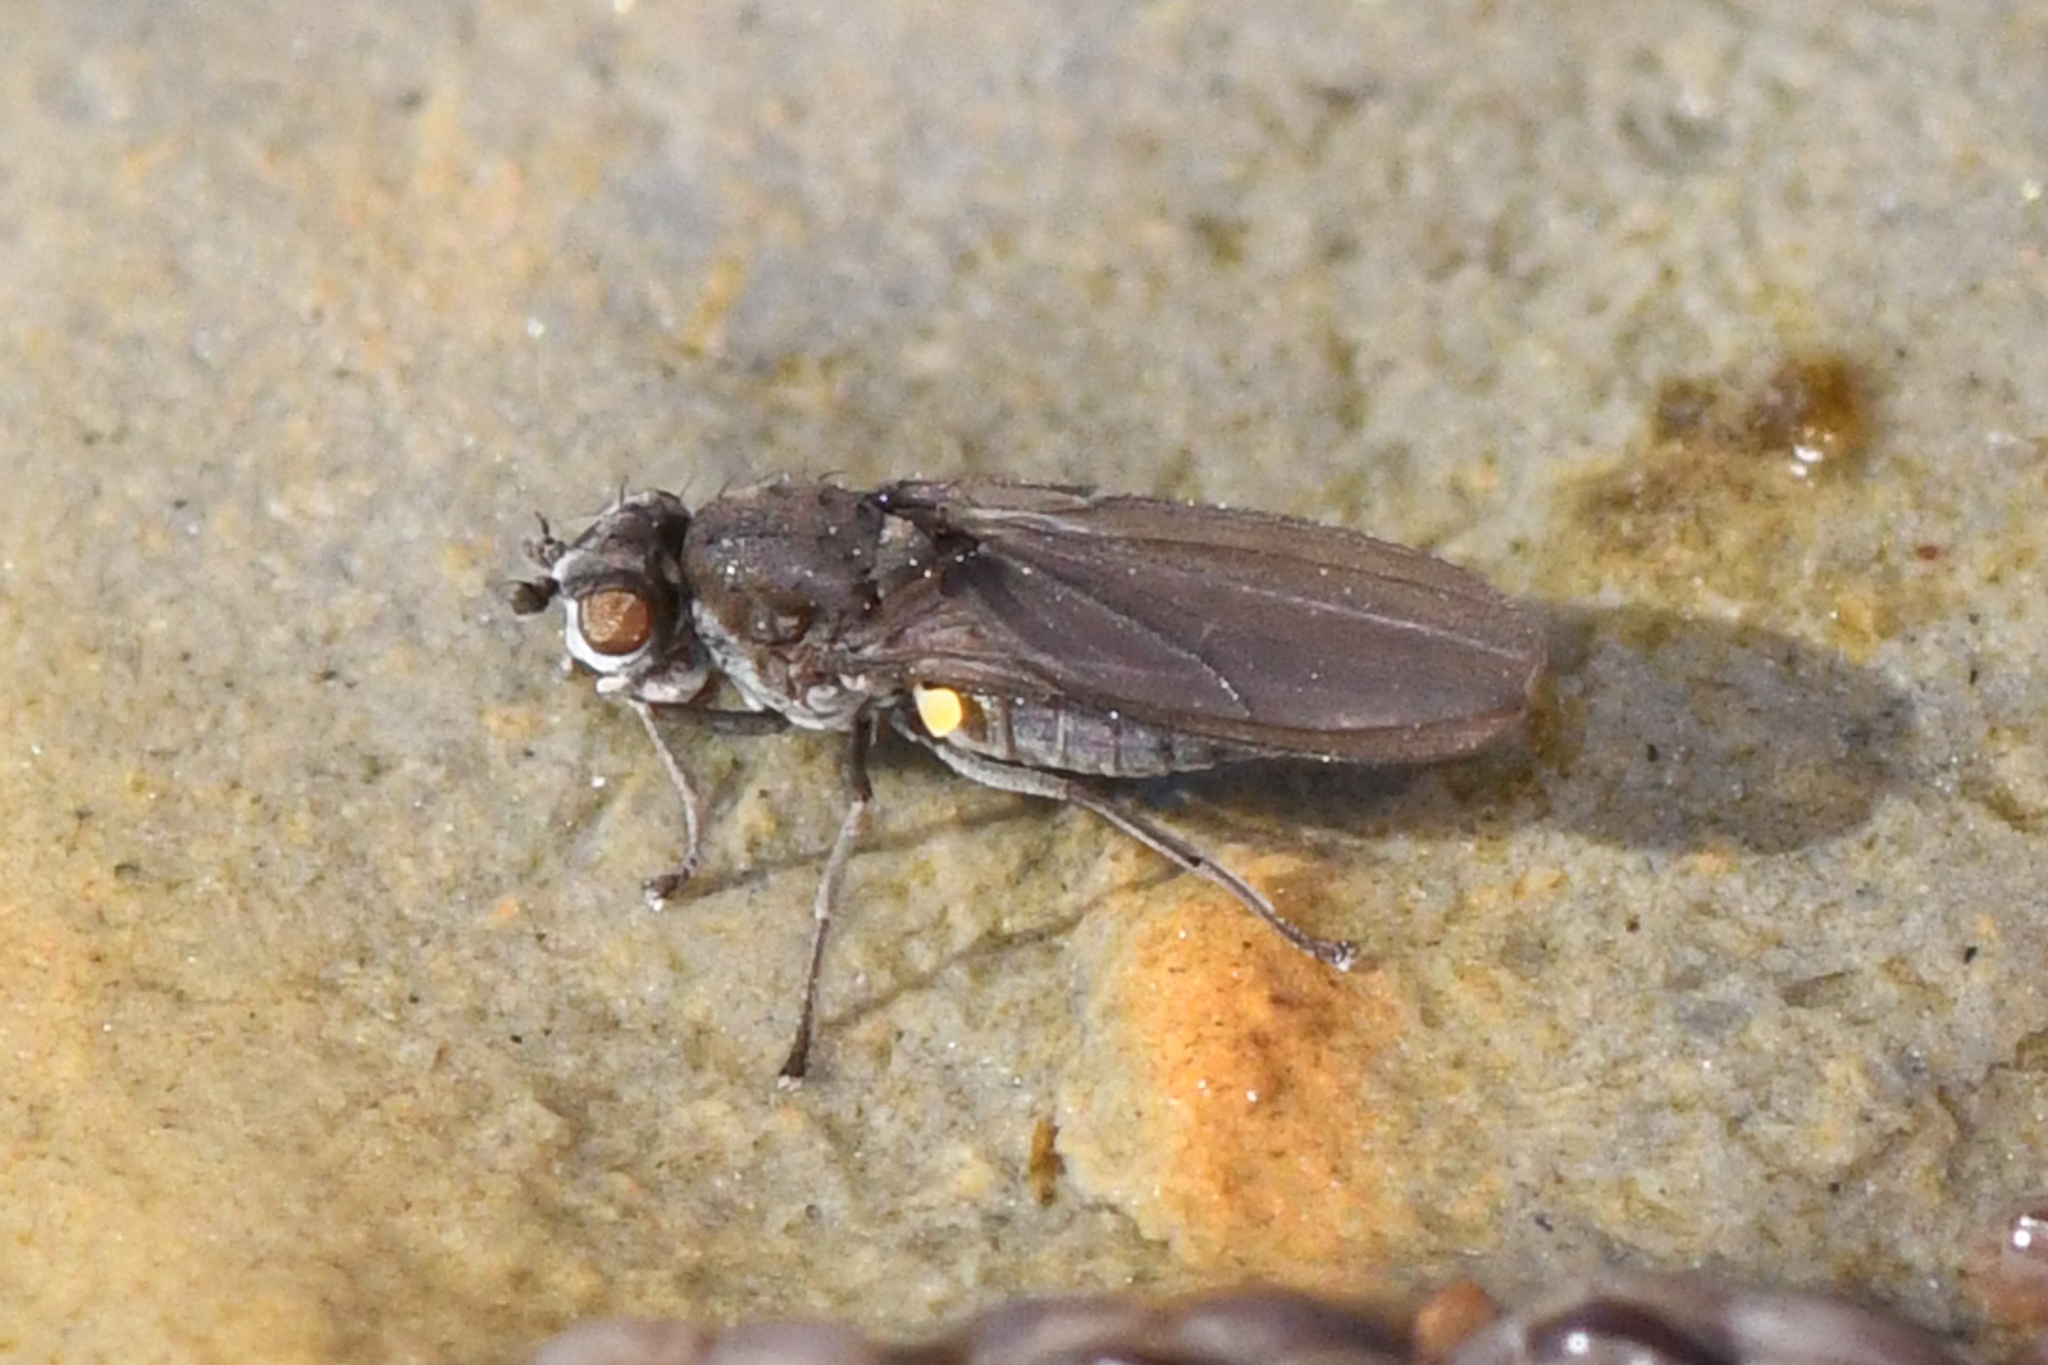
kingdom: Animalia
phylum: Arthropoda
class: Insecta
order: Diptera
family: Canacidae
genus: Canaceoides
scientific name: Canaceoides nudatus
